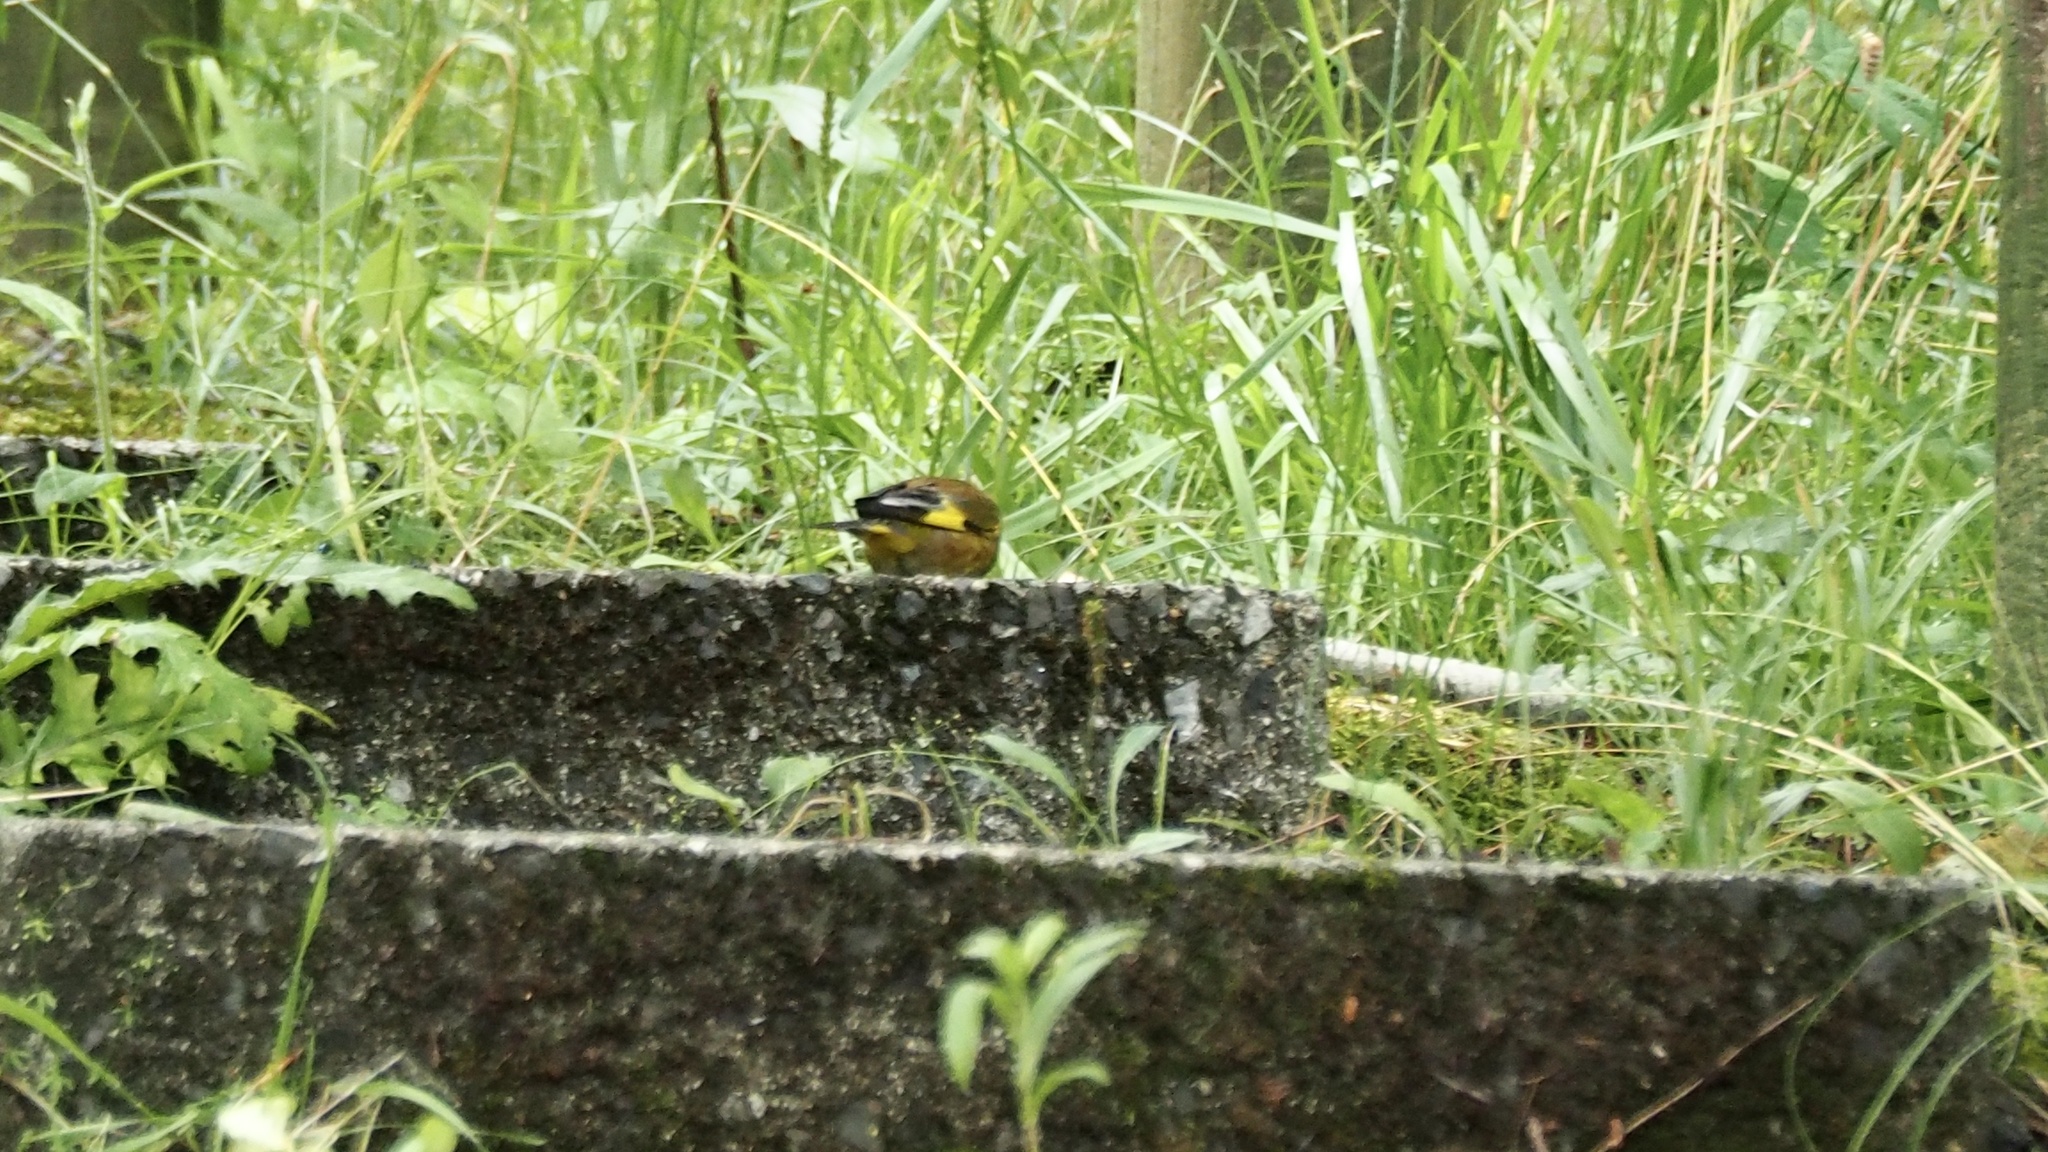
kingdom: Plantae
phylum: Tracheophyta
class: Liliopsida
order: Poales
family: Poaceae
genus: Chloris
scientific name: Chloris sinica
